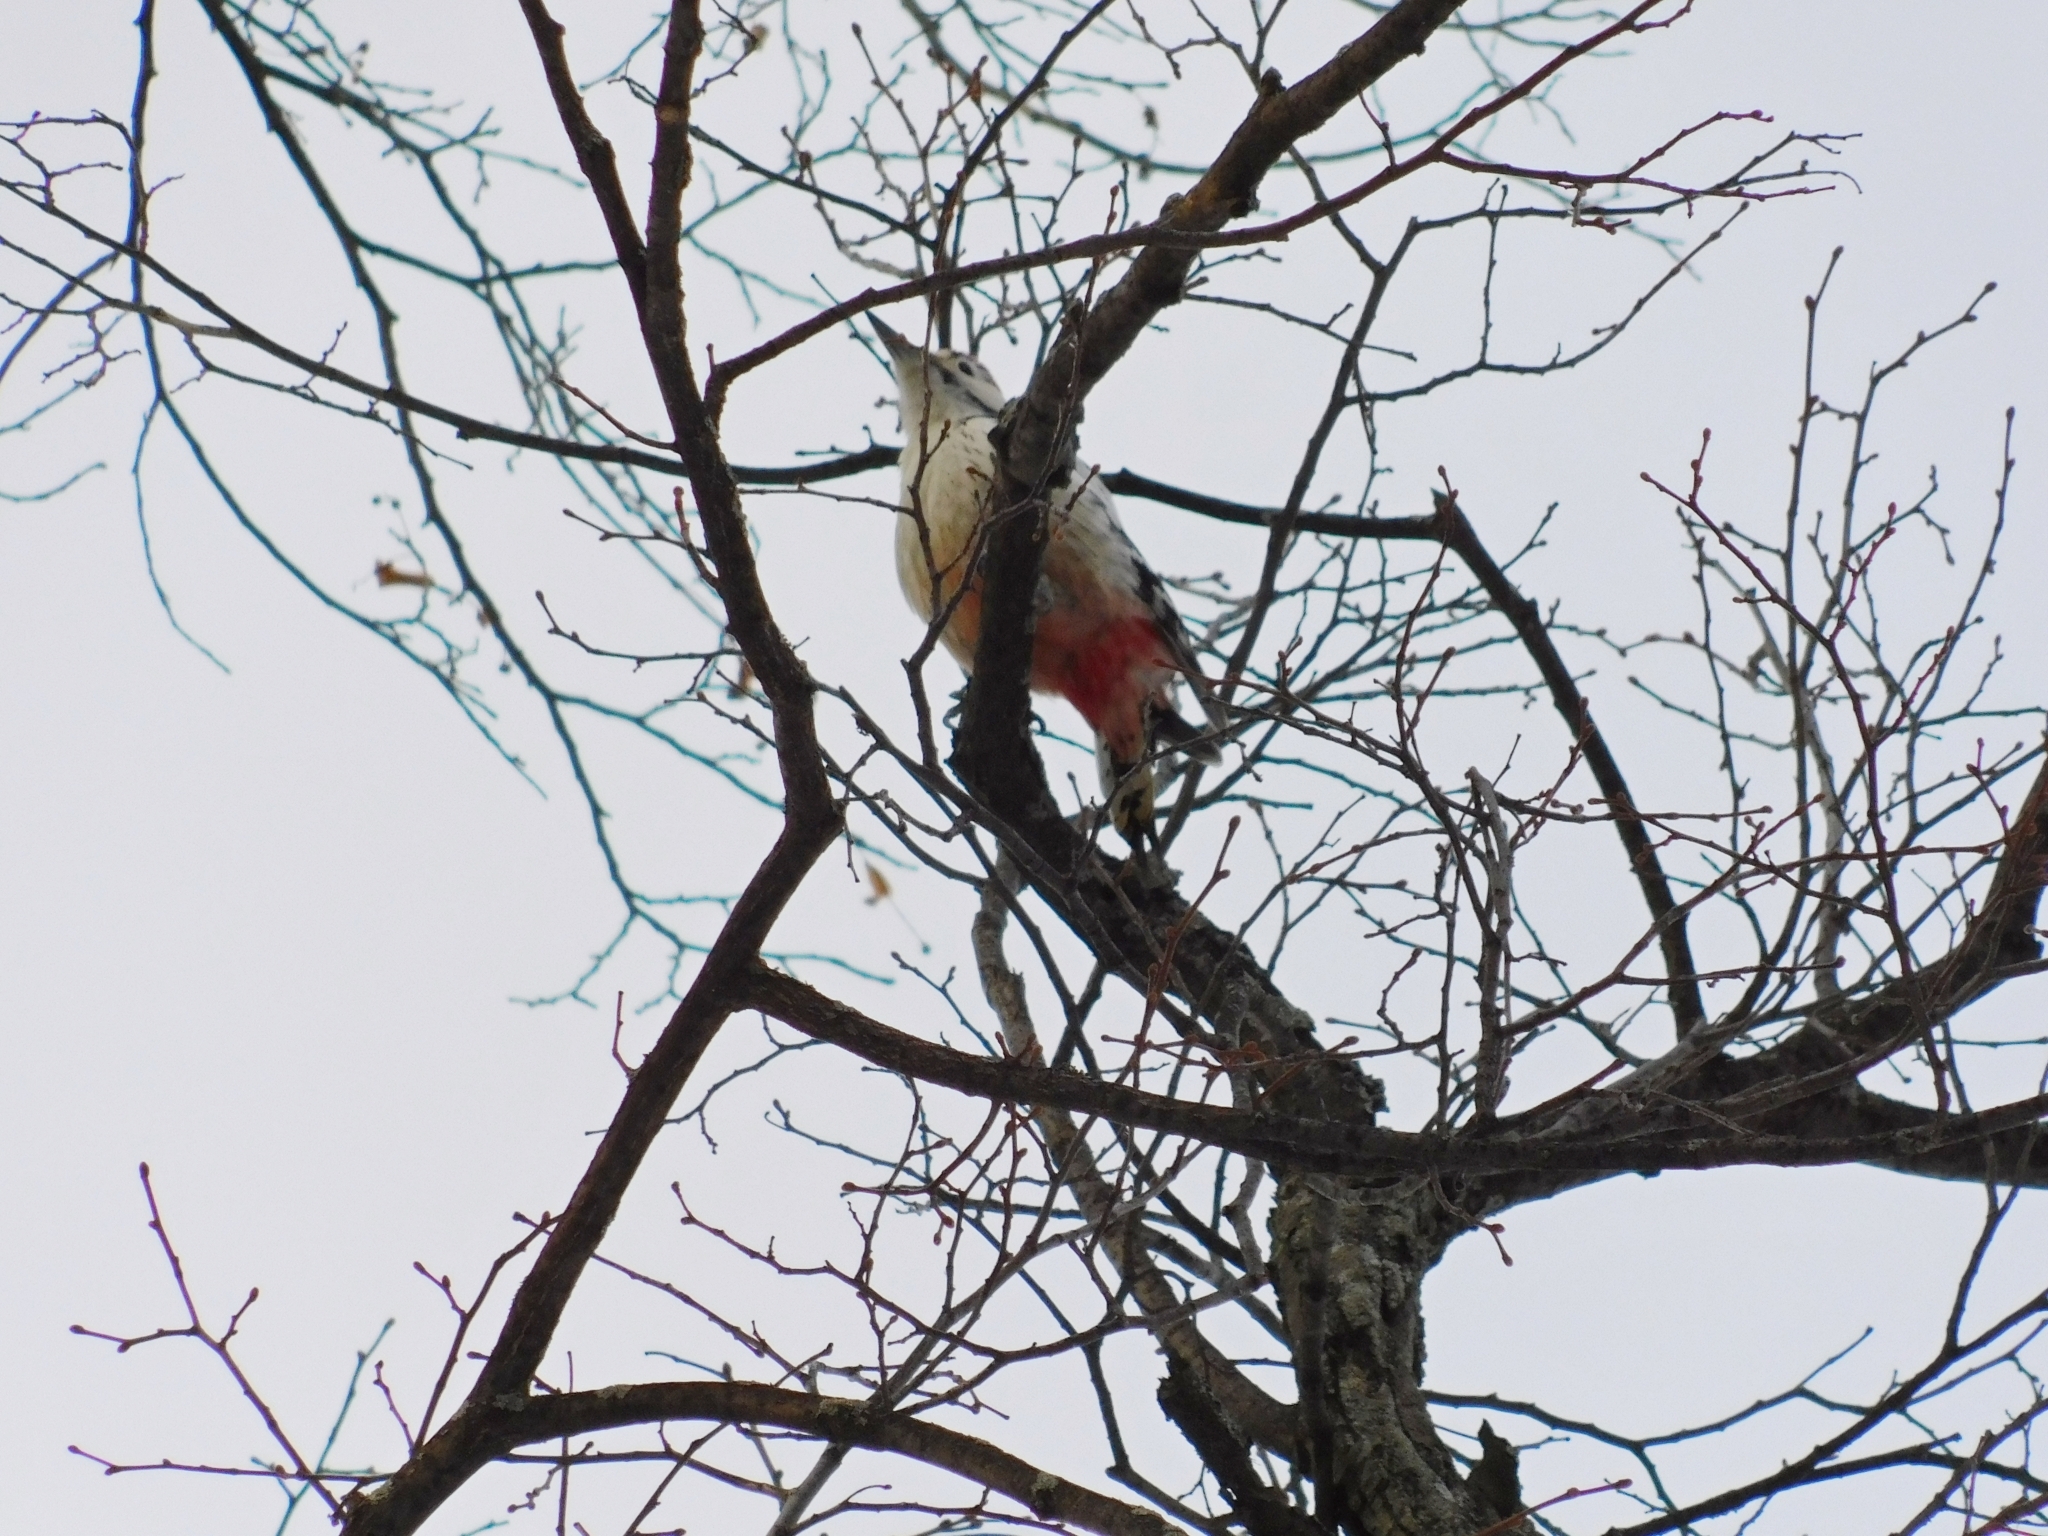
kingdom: Animalia
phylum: Chordata
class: Aves
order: Piciformes
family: Picidae
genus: Dendrocopos
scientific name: Dendrocopos leucotos
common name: White-backed woodpecker
